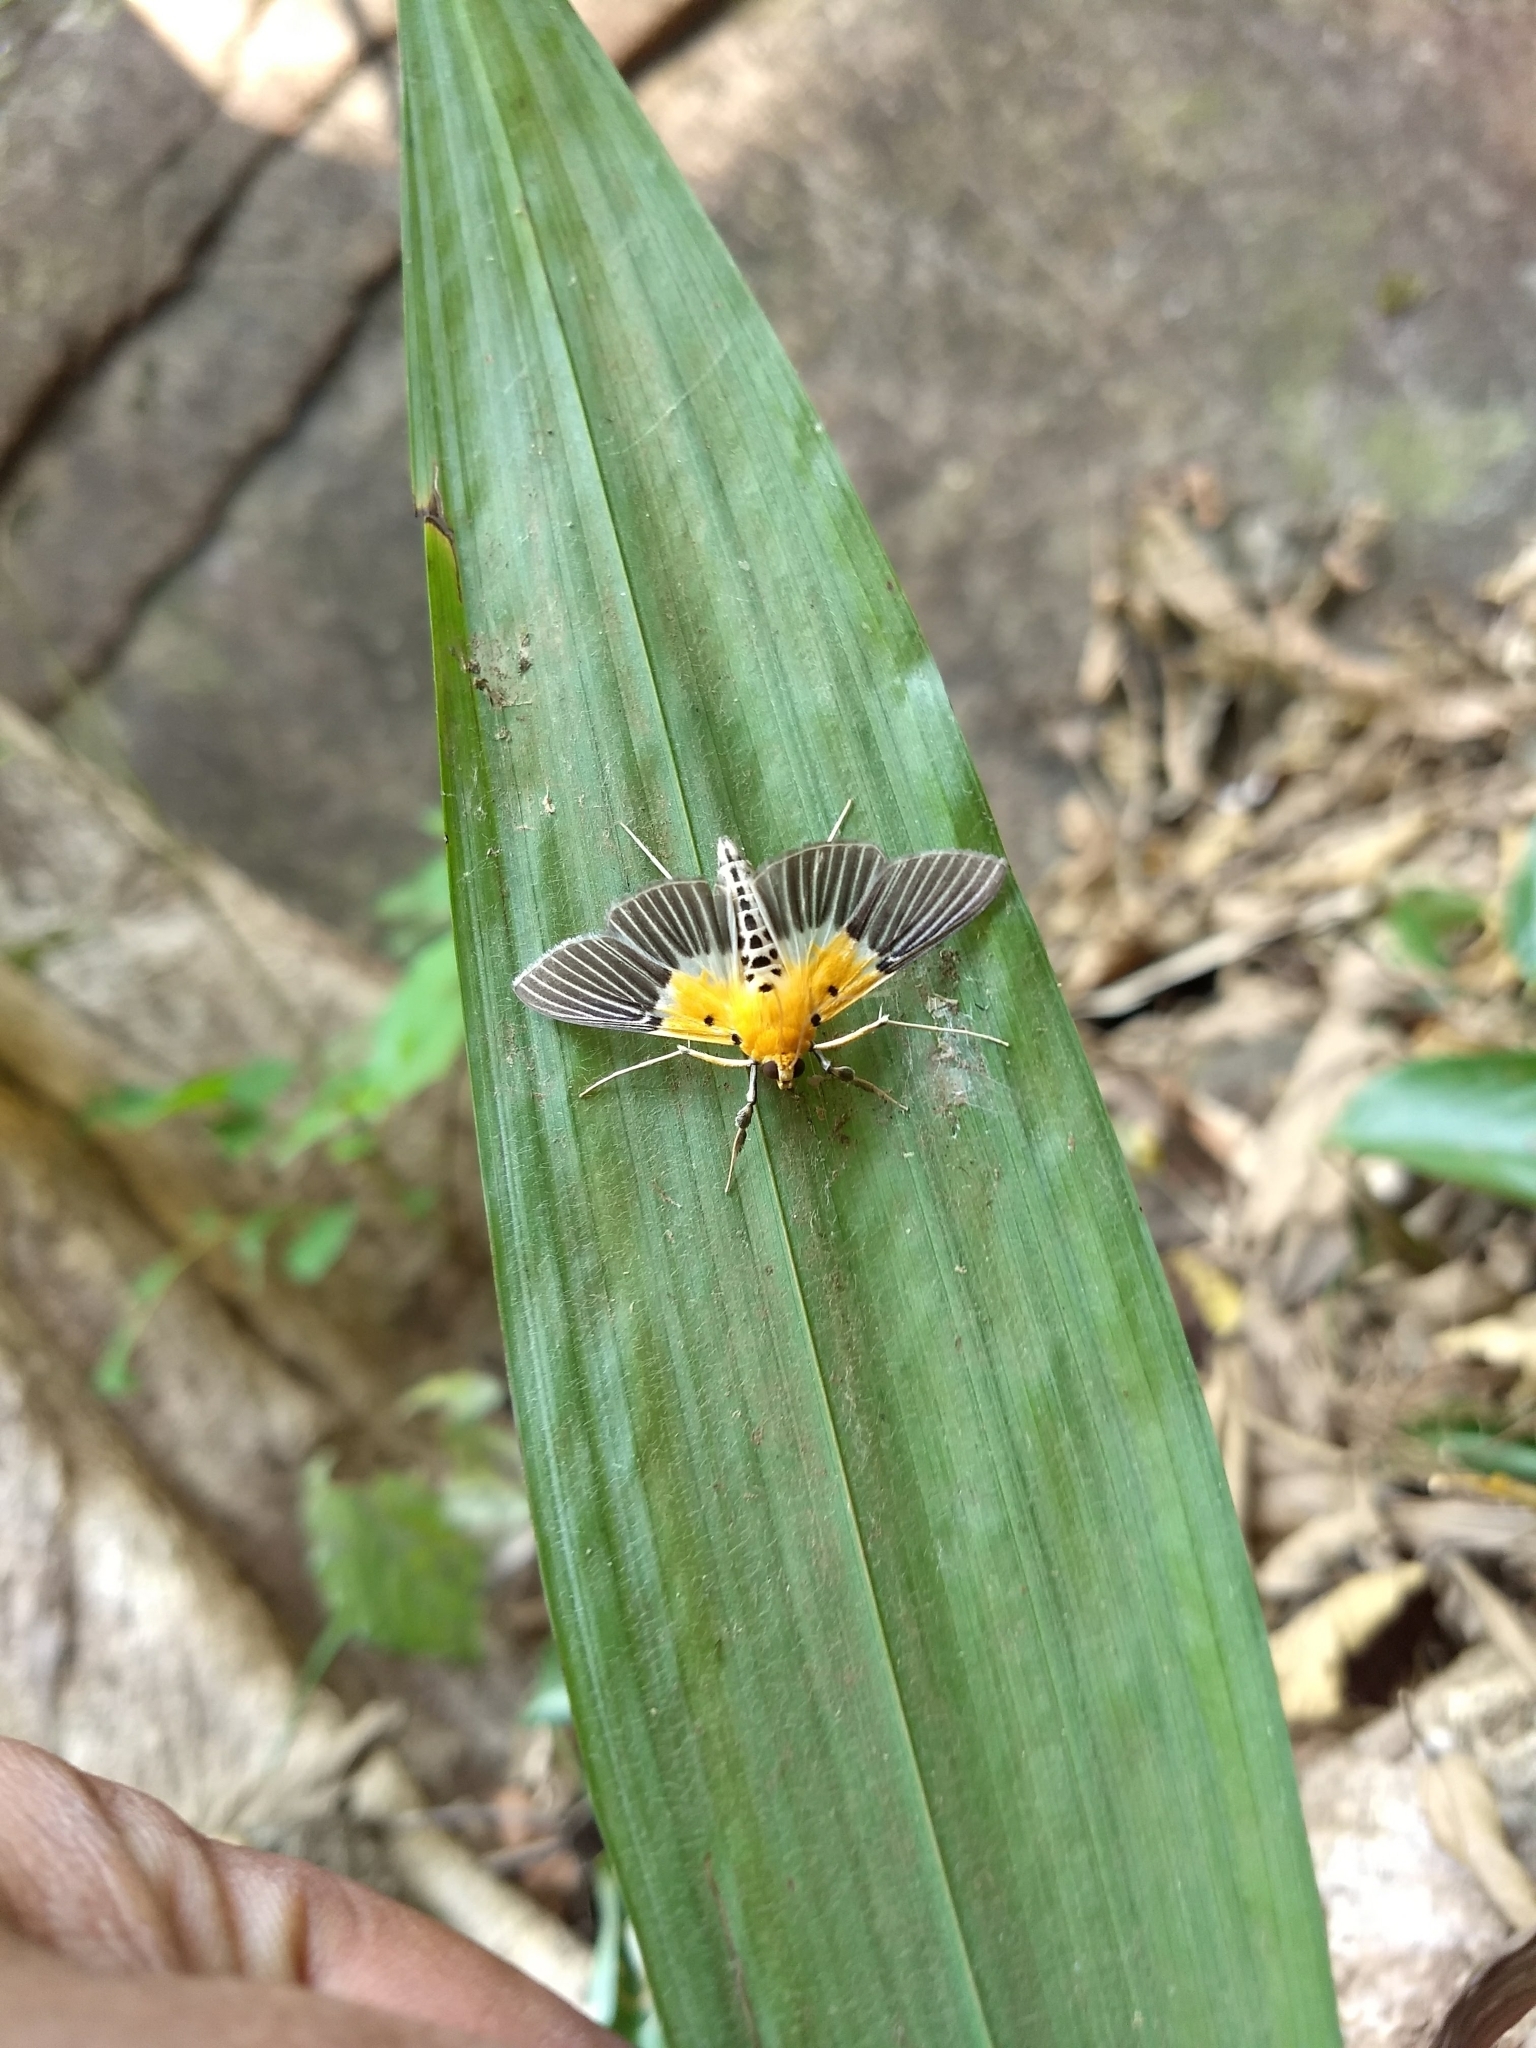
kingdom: Animalia
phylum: Arthropoda
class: Insecta
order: Lepidoptera
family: Crambidae
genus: Nevrina
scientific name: Nevrina procopia
